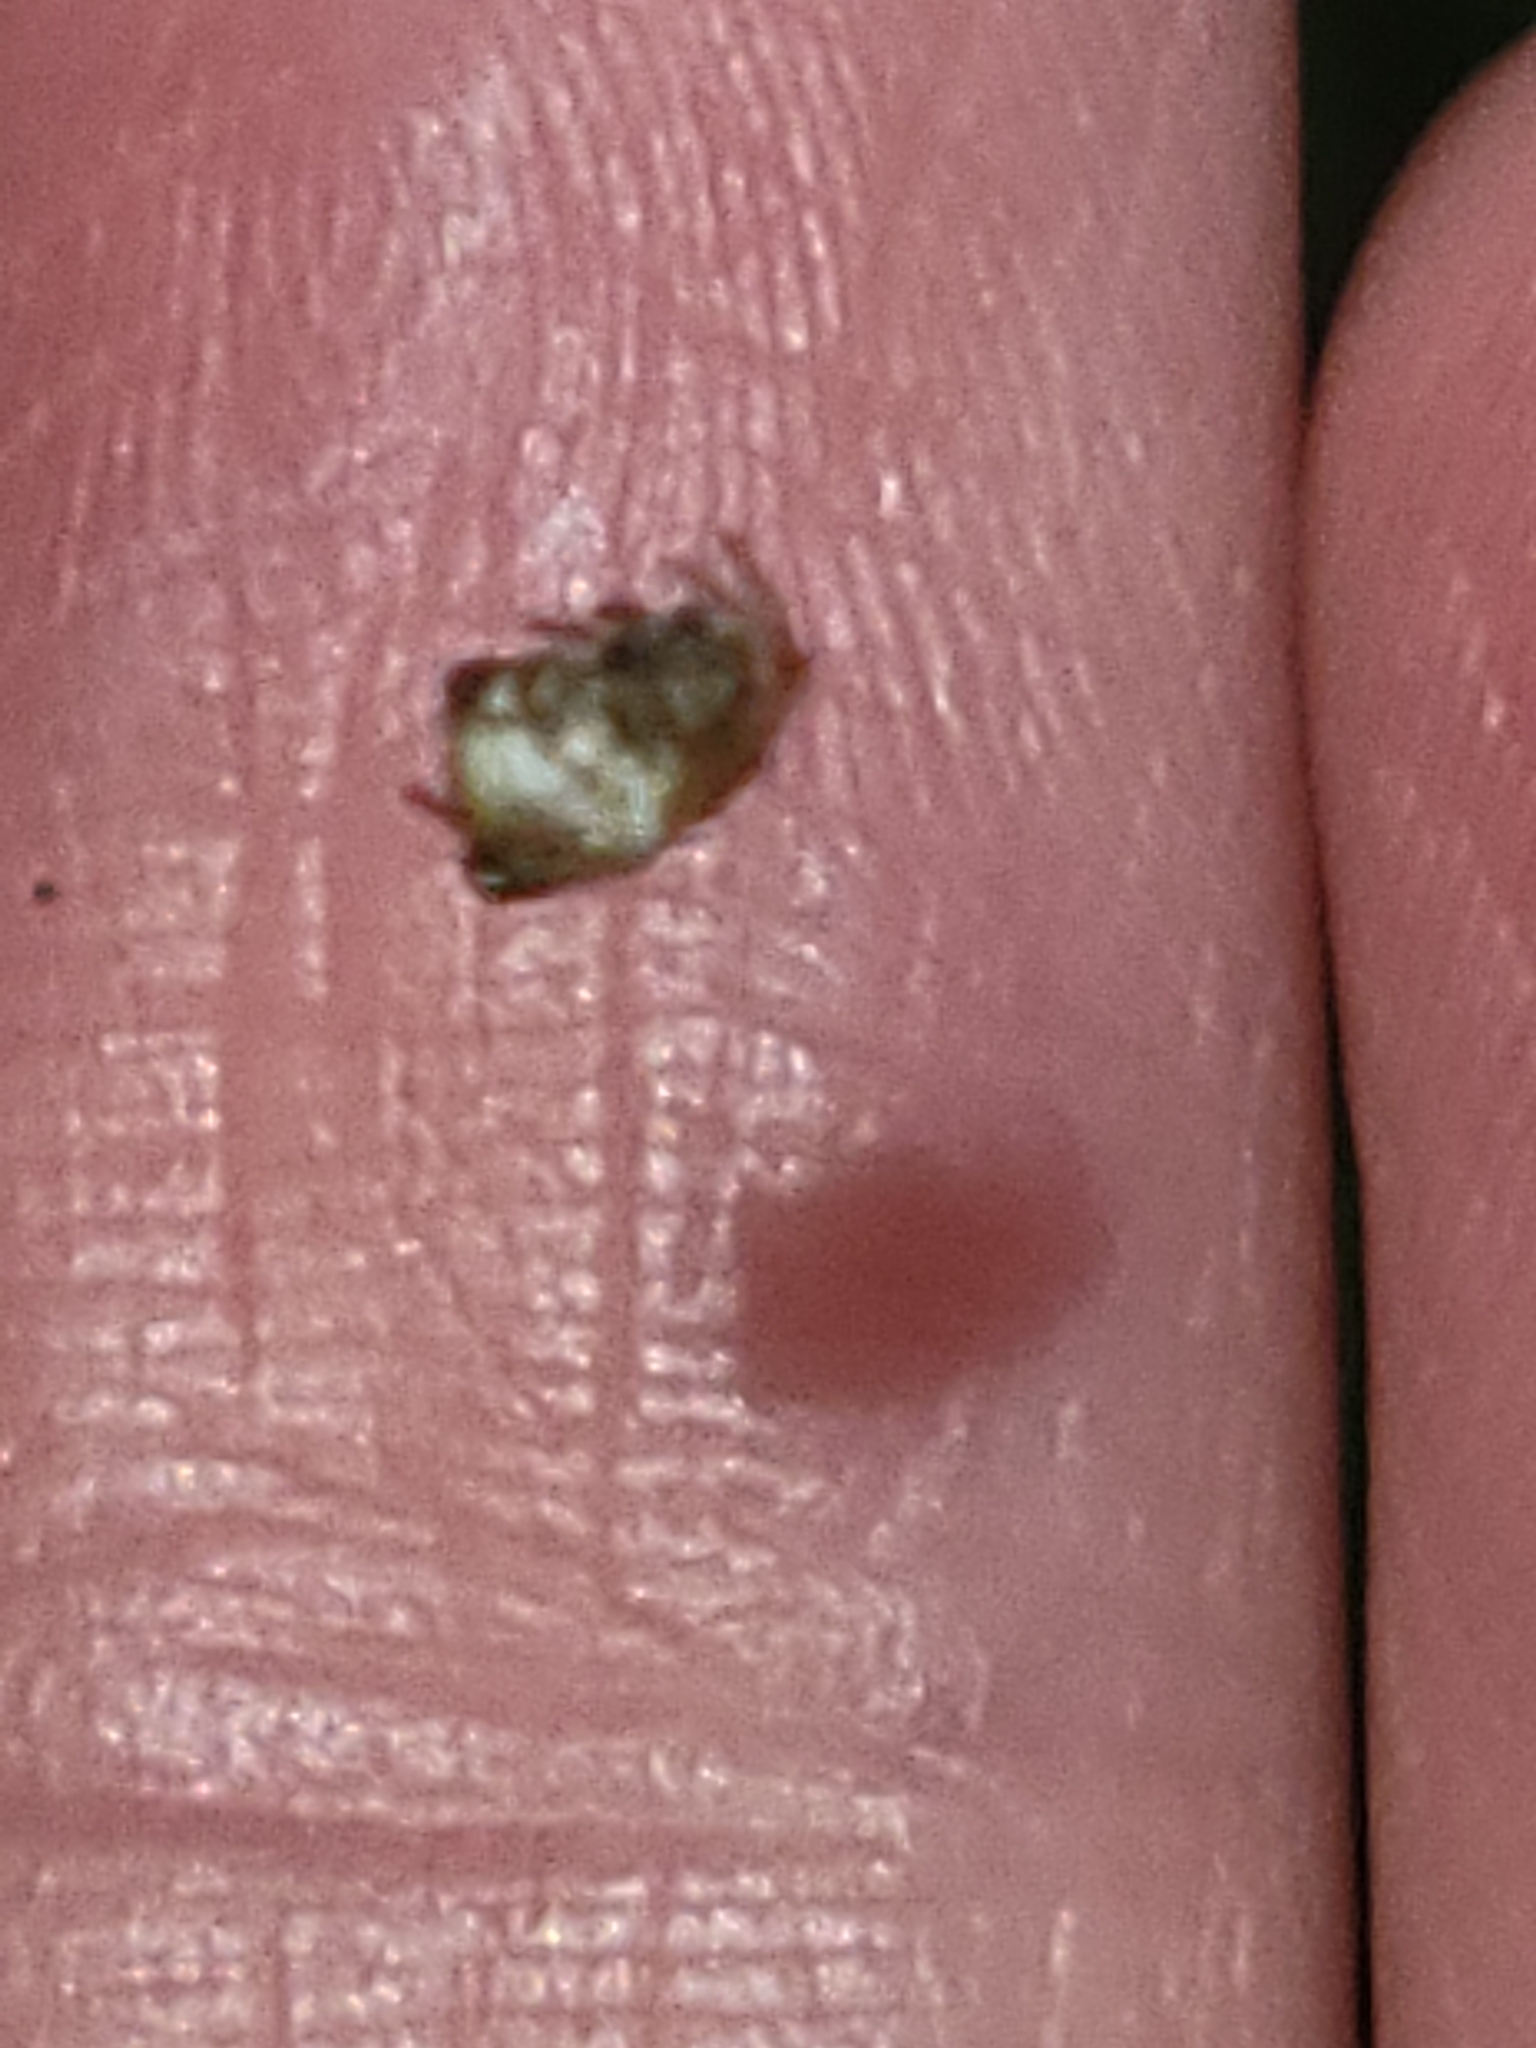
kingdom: Animalia
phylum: Arthropoda
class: Arachnida
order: Araneae
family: Araneidae
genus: Cyclosa
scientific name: Cyclosa conica
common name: Conical trashline orbweaver
